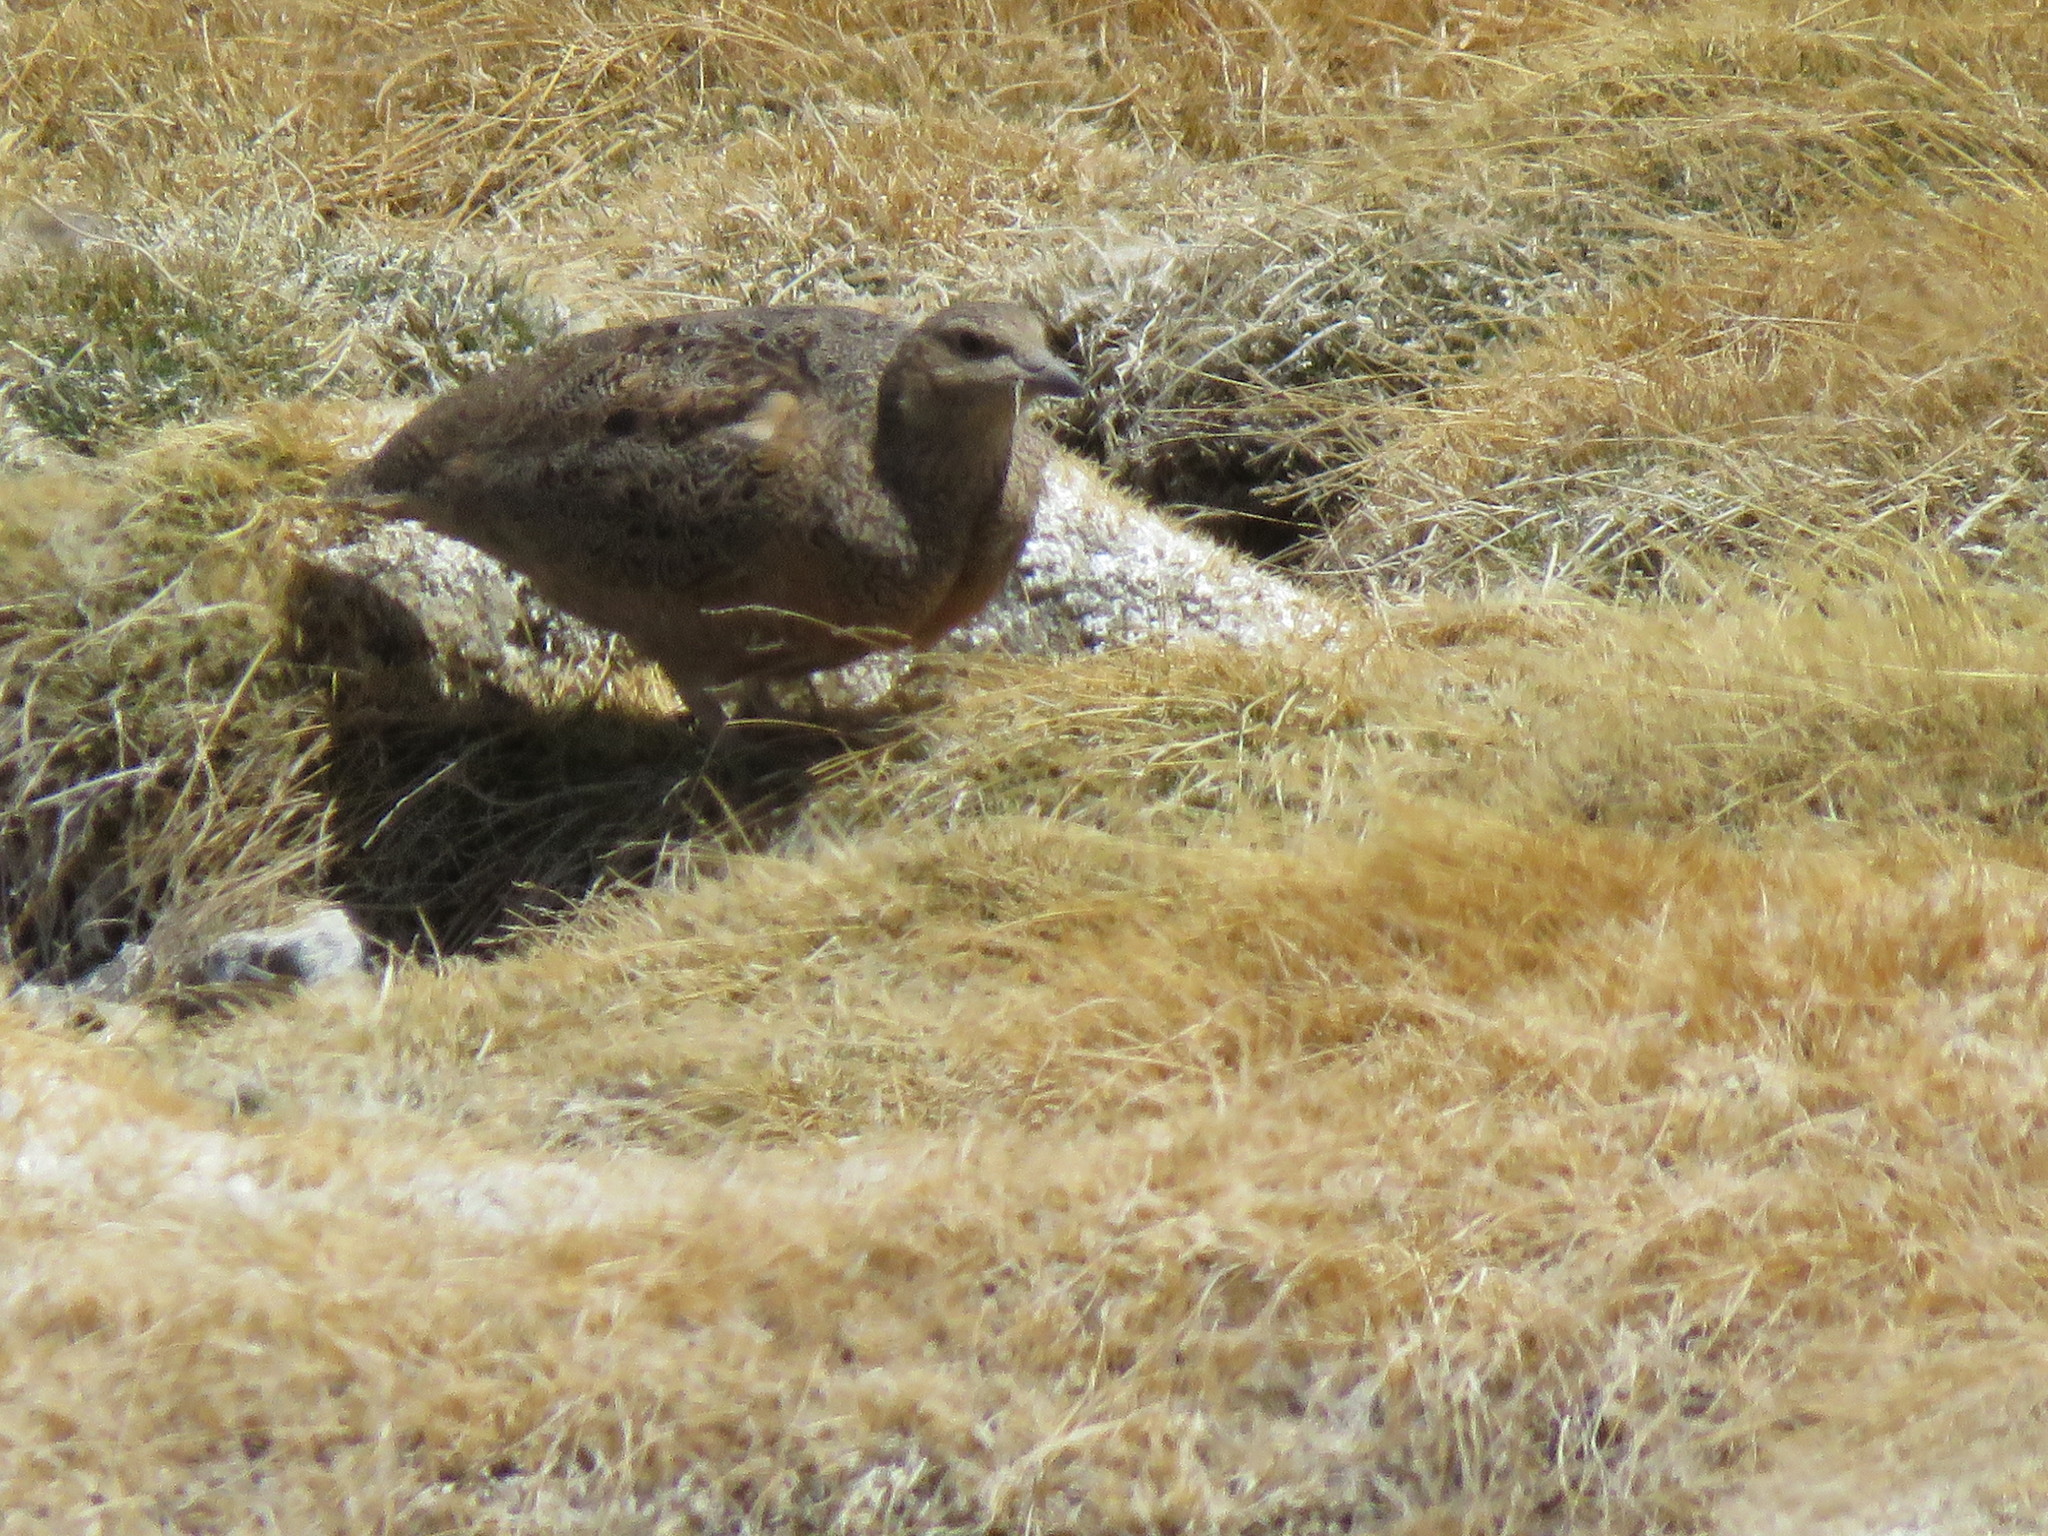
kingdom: Animalia
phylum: Chordata
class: Aves
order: Charadriiformes
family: Thinocoridae
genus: Attagis
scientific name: Attagis gayi
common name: Rufous-bellied seedsnipe
